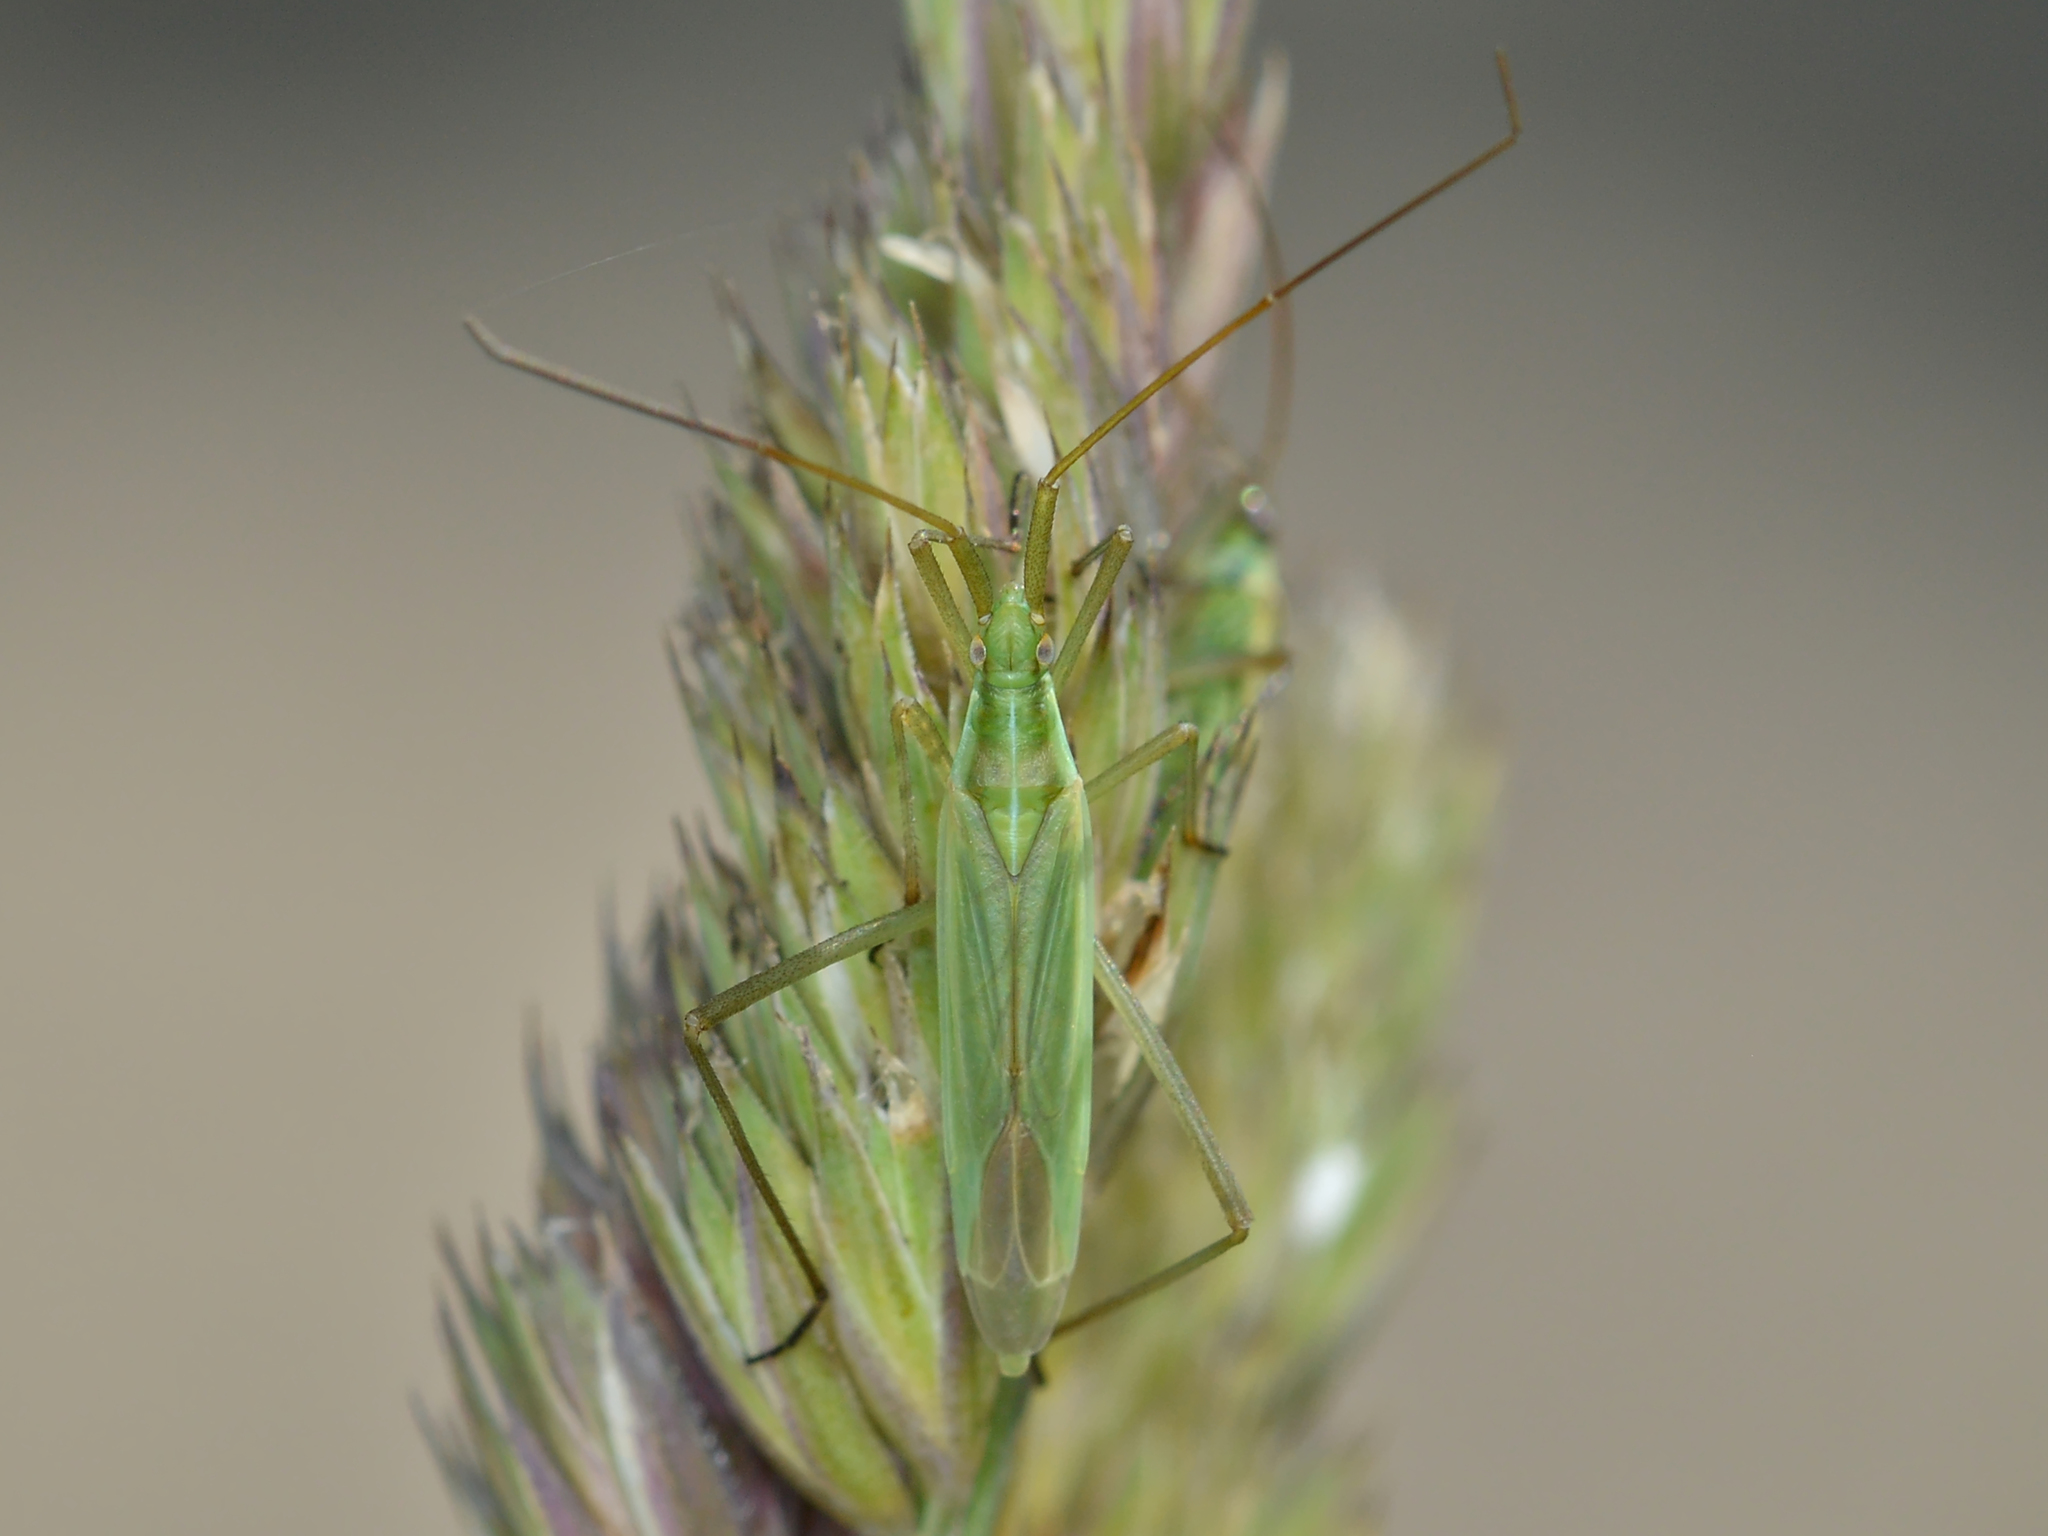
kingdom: Animalia
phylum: Arthropoda
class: Insecta
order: Hemiptera
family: Miridae
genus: Megaloceroea
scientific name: Megaloceroea recticornis
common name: Plant bug
